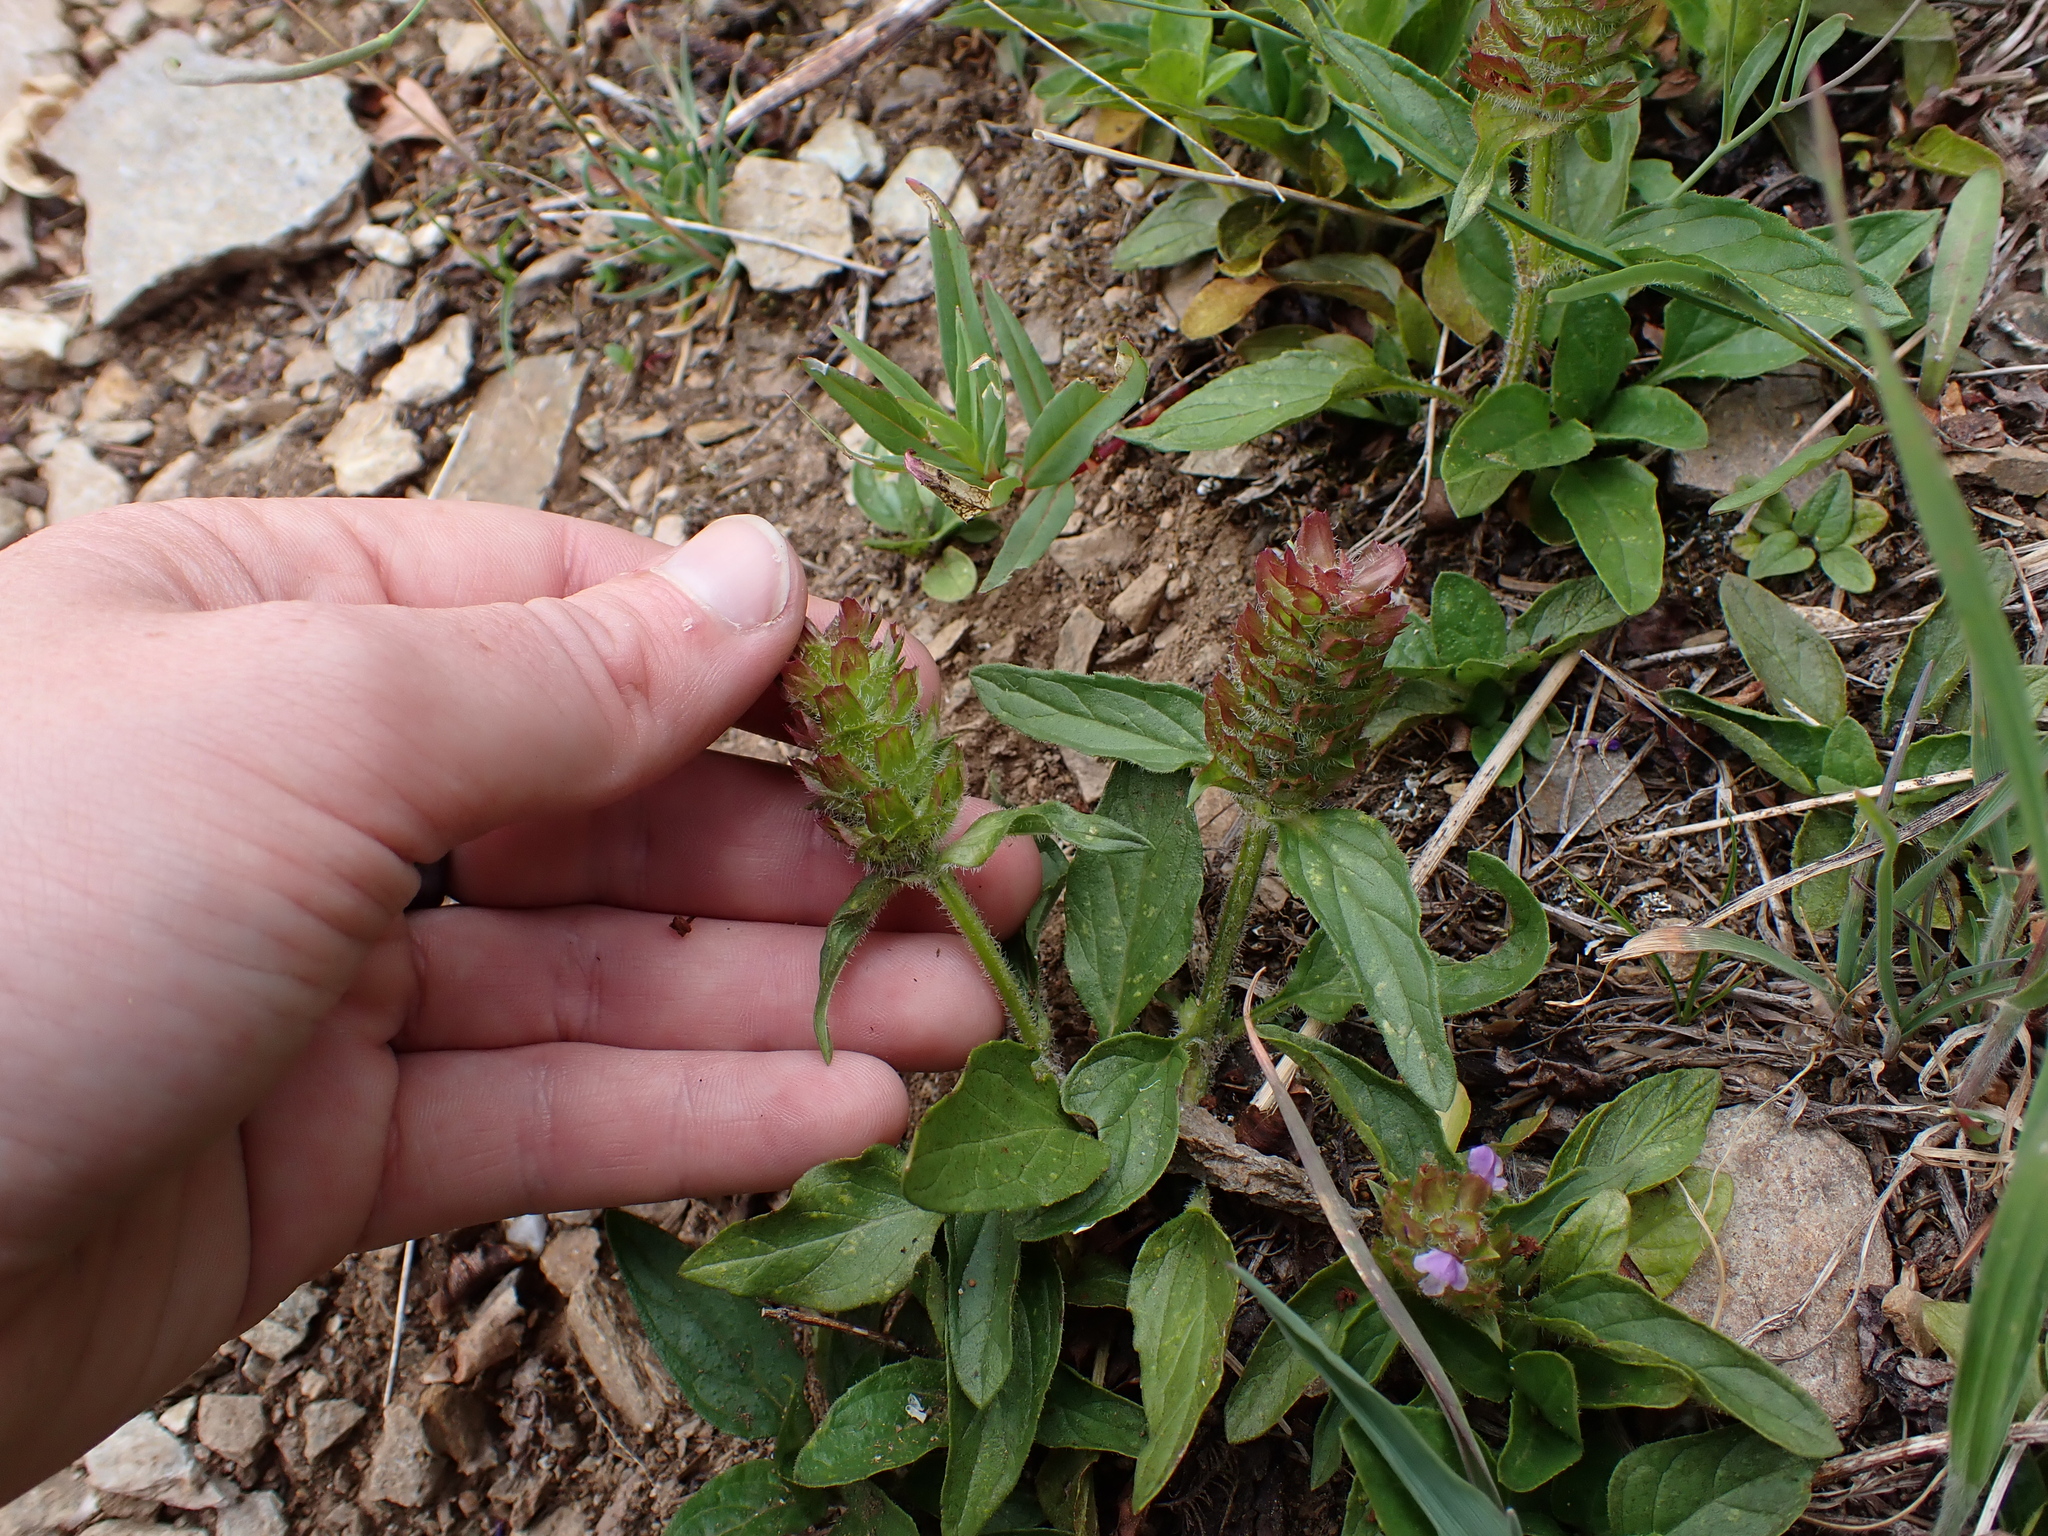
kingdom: Plantae
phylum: Tracheophyta
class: Magnoliopsida
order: Lamiales
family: Lamiaceae
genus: Prunella
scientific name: Prunella vulgaris
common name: Heal-all
